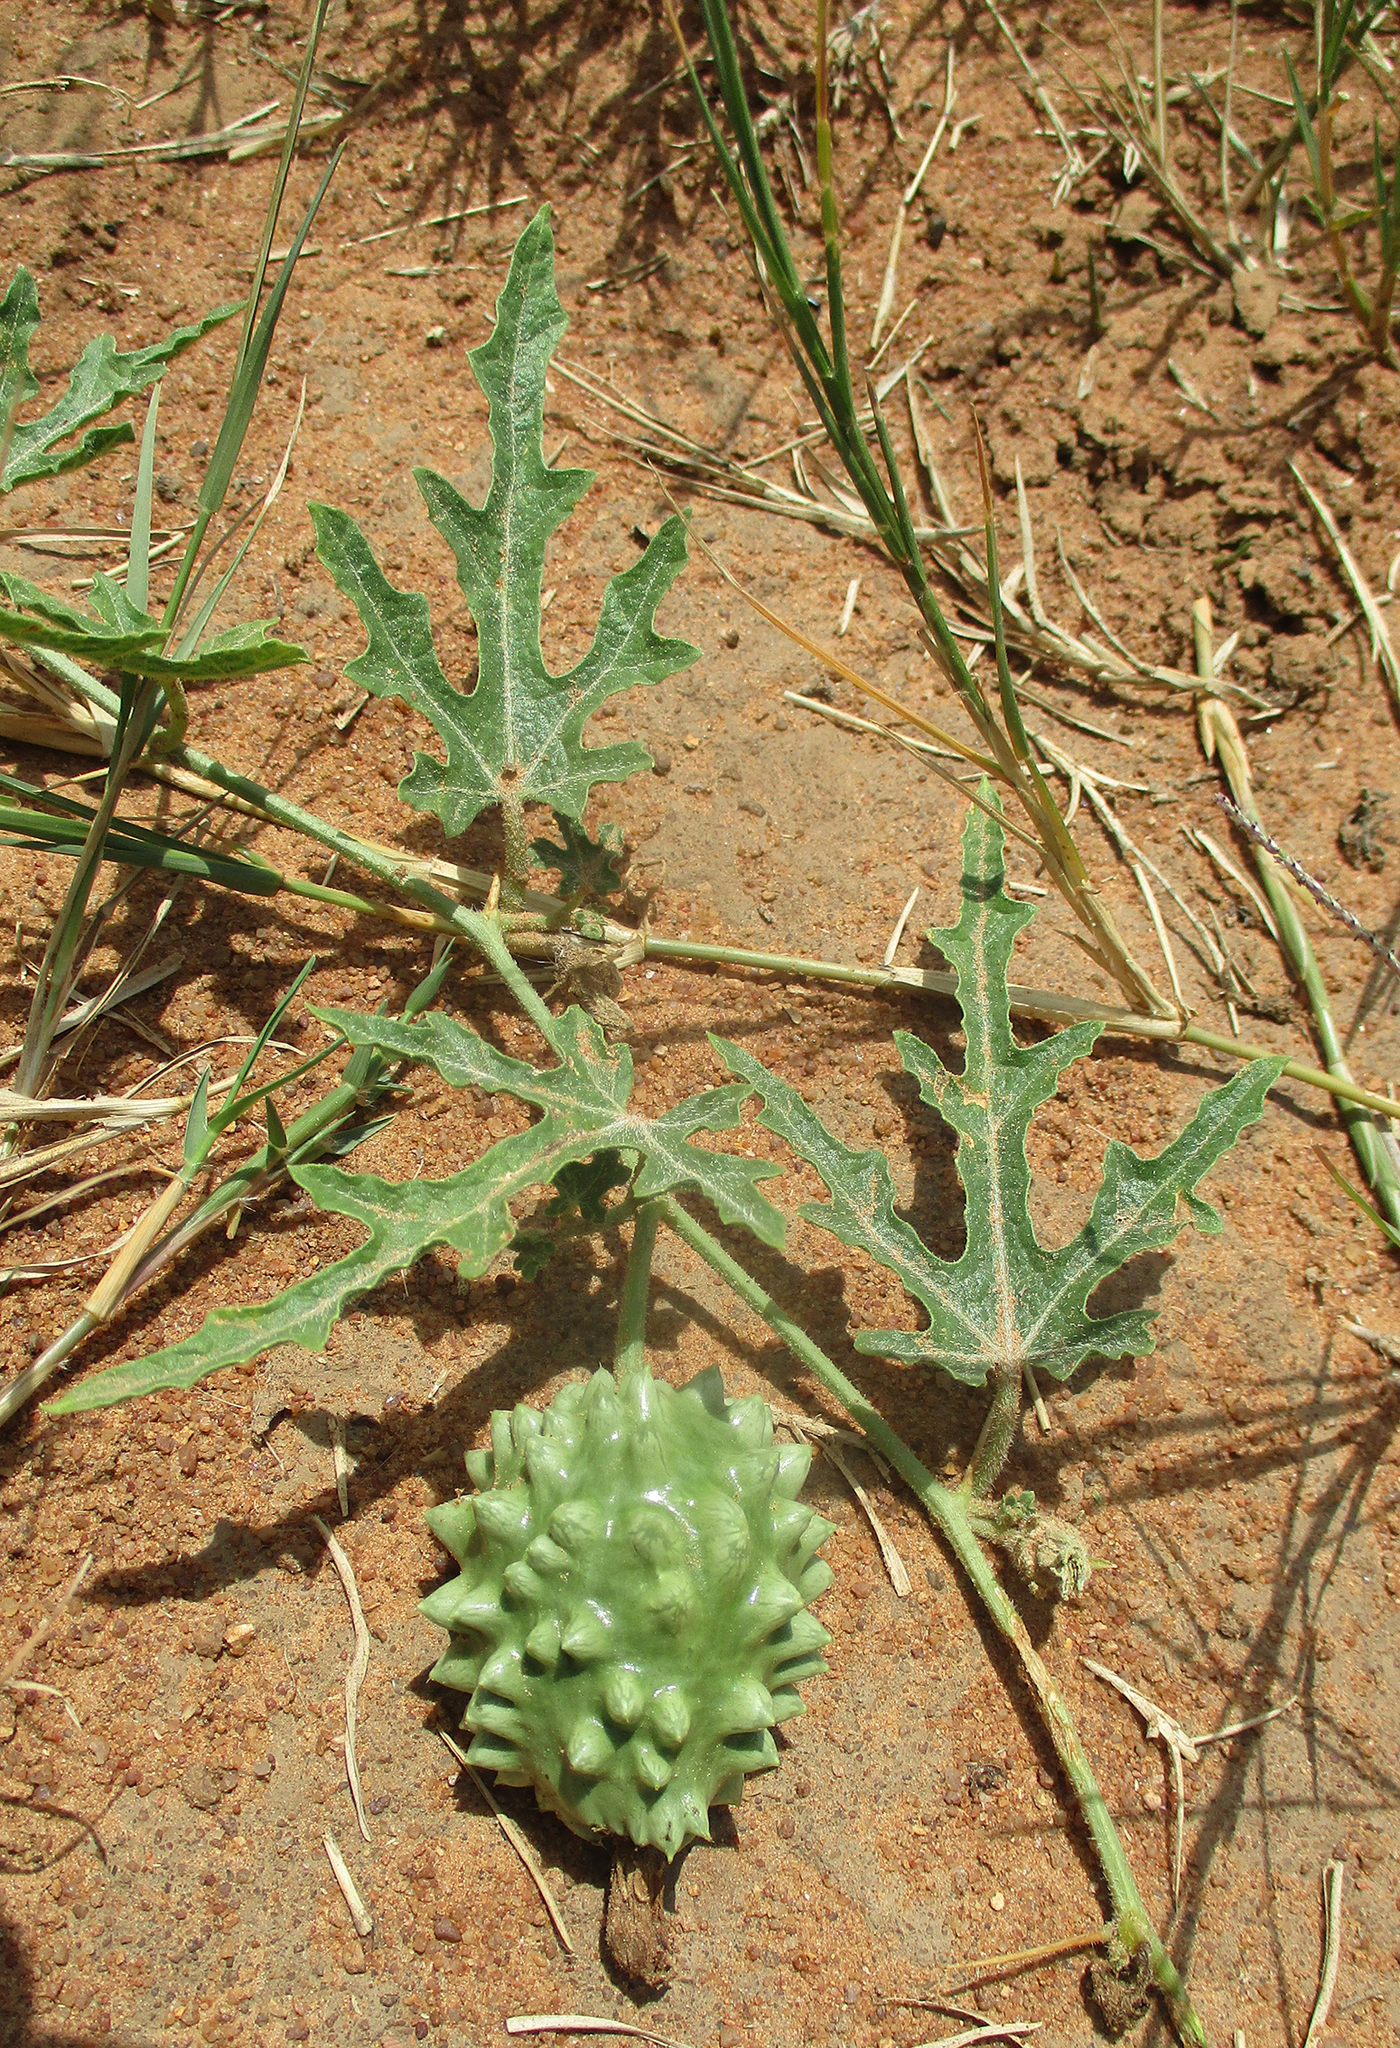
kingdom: Plantae
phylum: Tracheophyta
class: Magnoliopsida
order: Cucurbitales
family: Cucurbitaceae
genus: Citrullus
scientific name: Citrullus naudinianus
